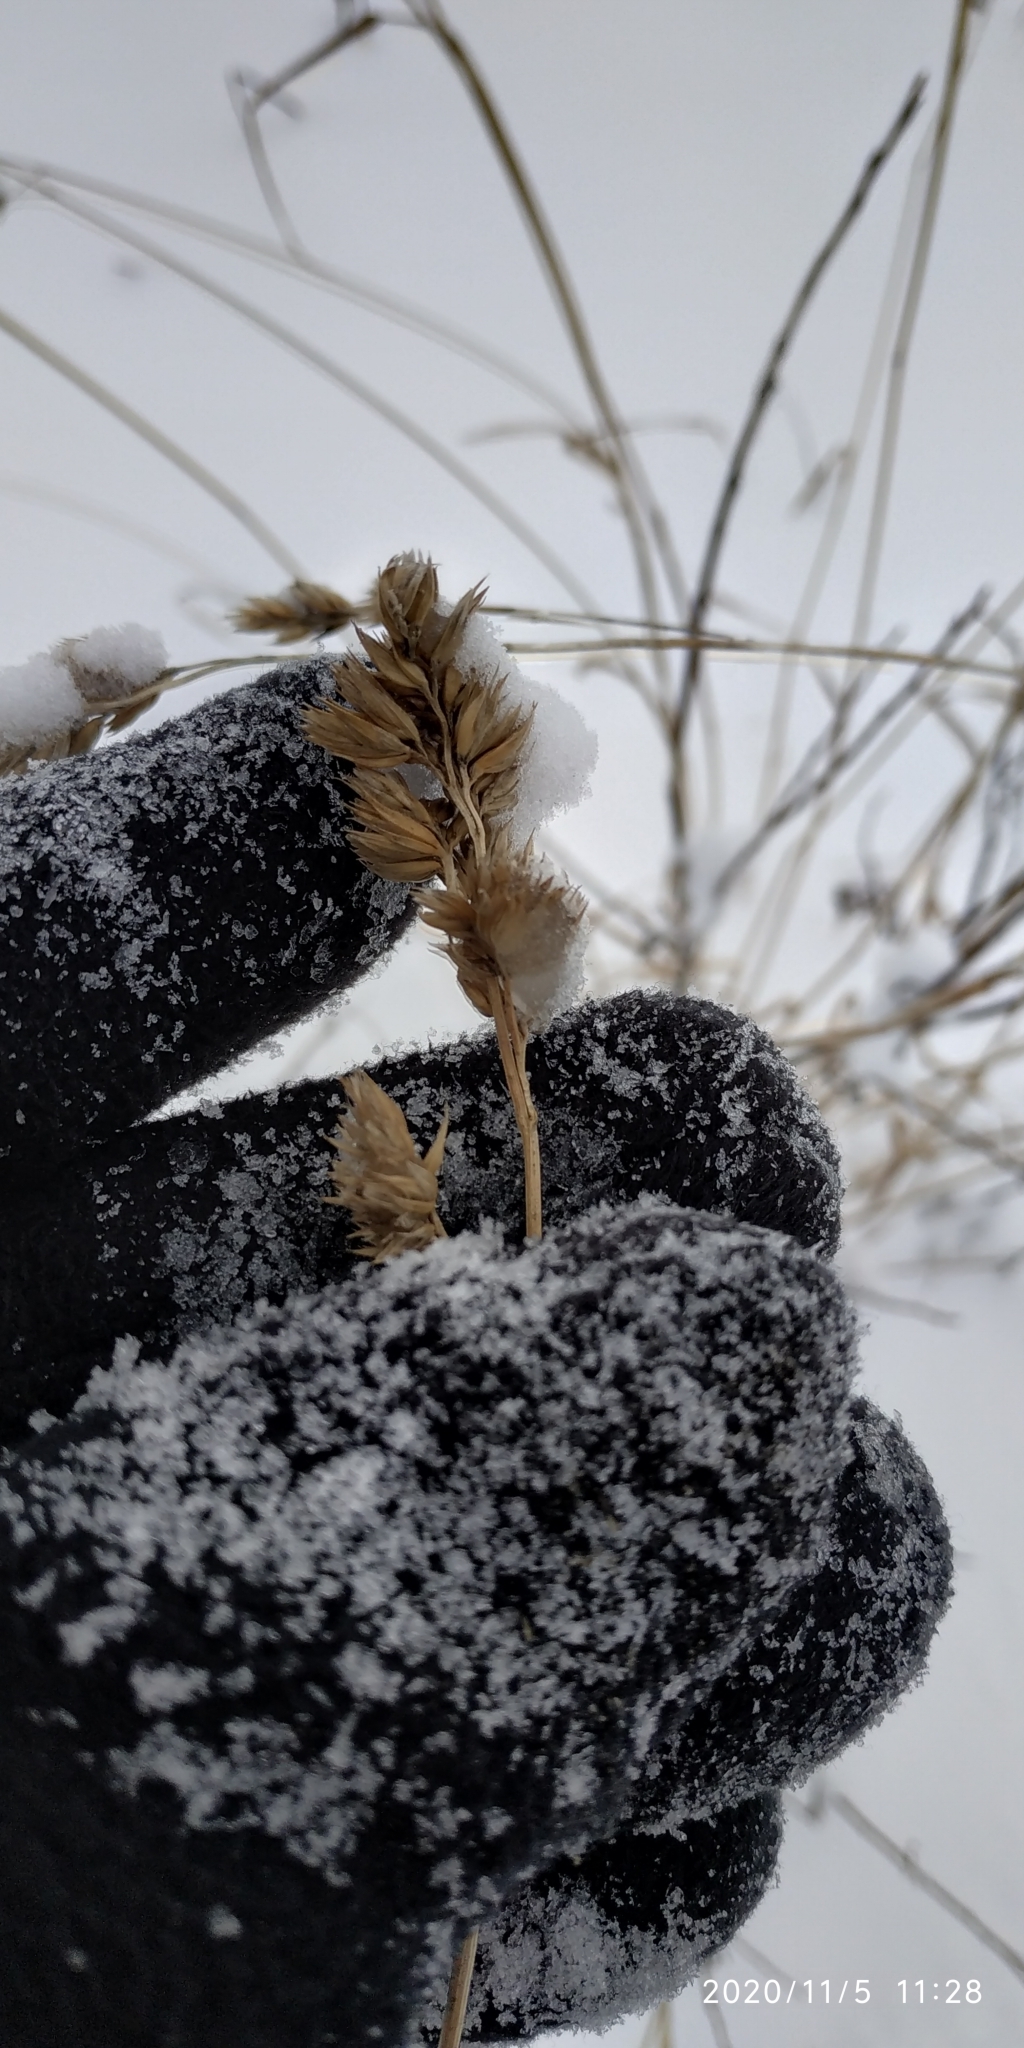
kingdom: Plantae
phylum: Tracheophyta
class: Liliopsida
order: Poales
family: Poaceae
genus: Dactylis
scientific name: Dactylis glomerata
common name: Orchardgrass
